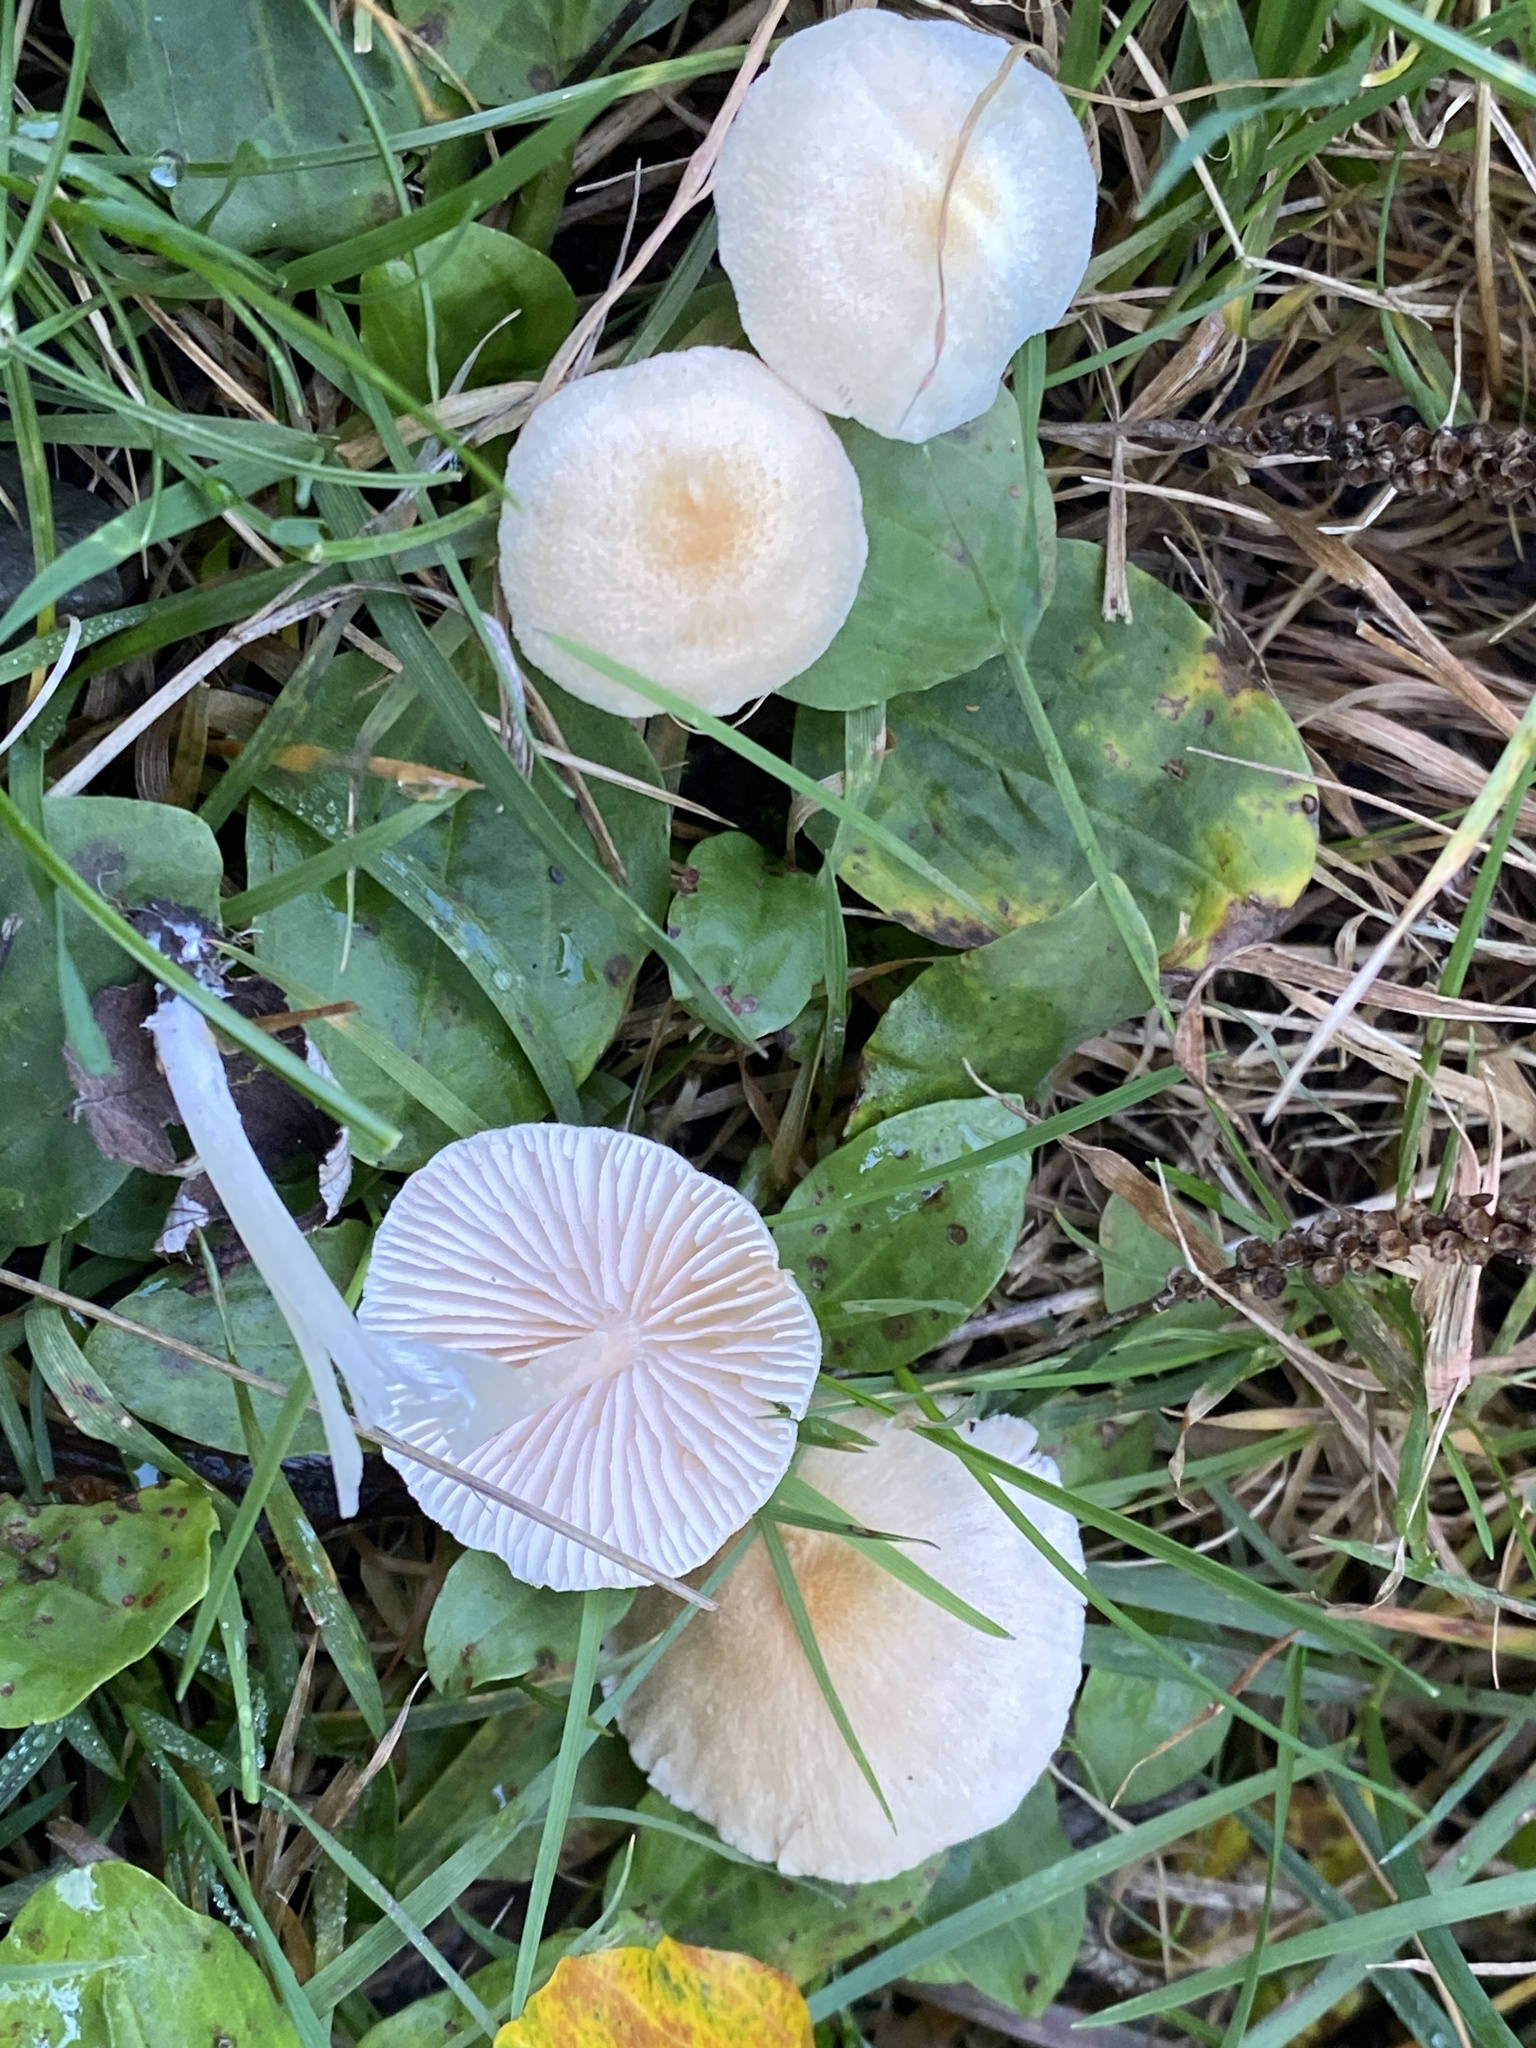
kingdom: Fungi
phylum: Basidiomycota
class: Agaricomycetes
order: Agaricales
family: Entolomataceae
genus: Entoloma
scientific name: Entoloma sericellum
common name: Cream pinkgill
